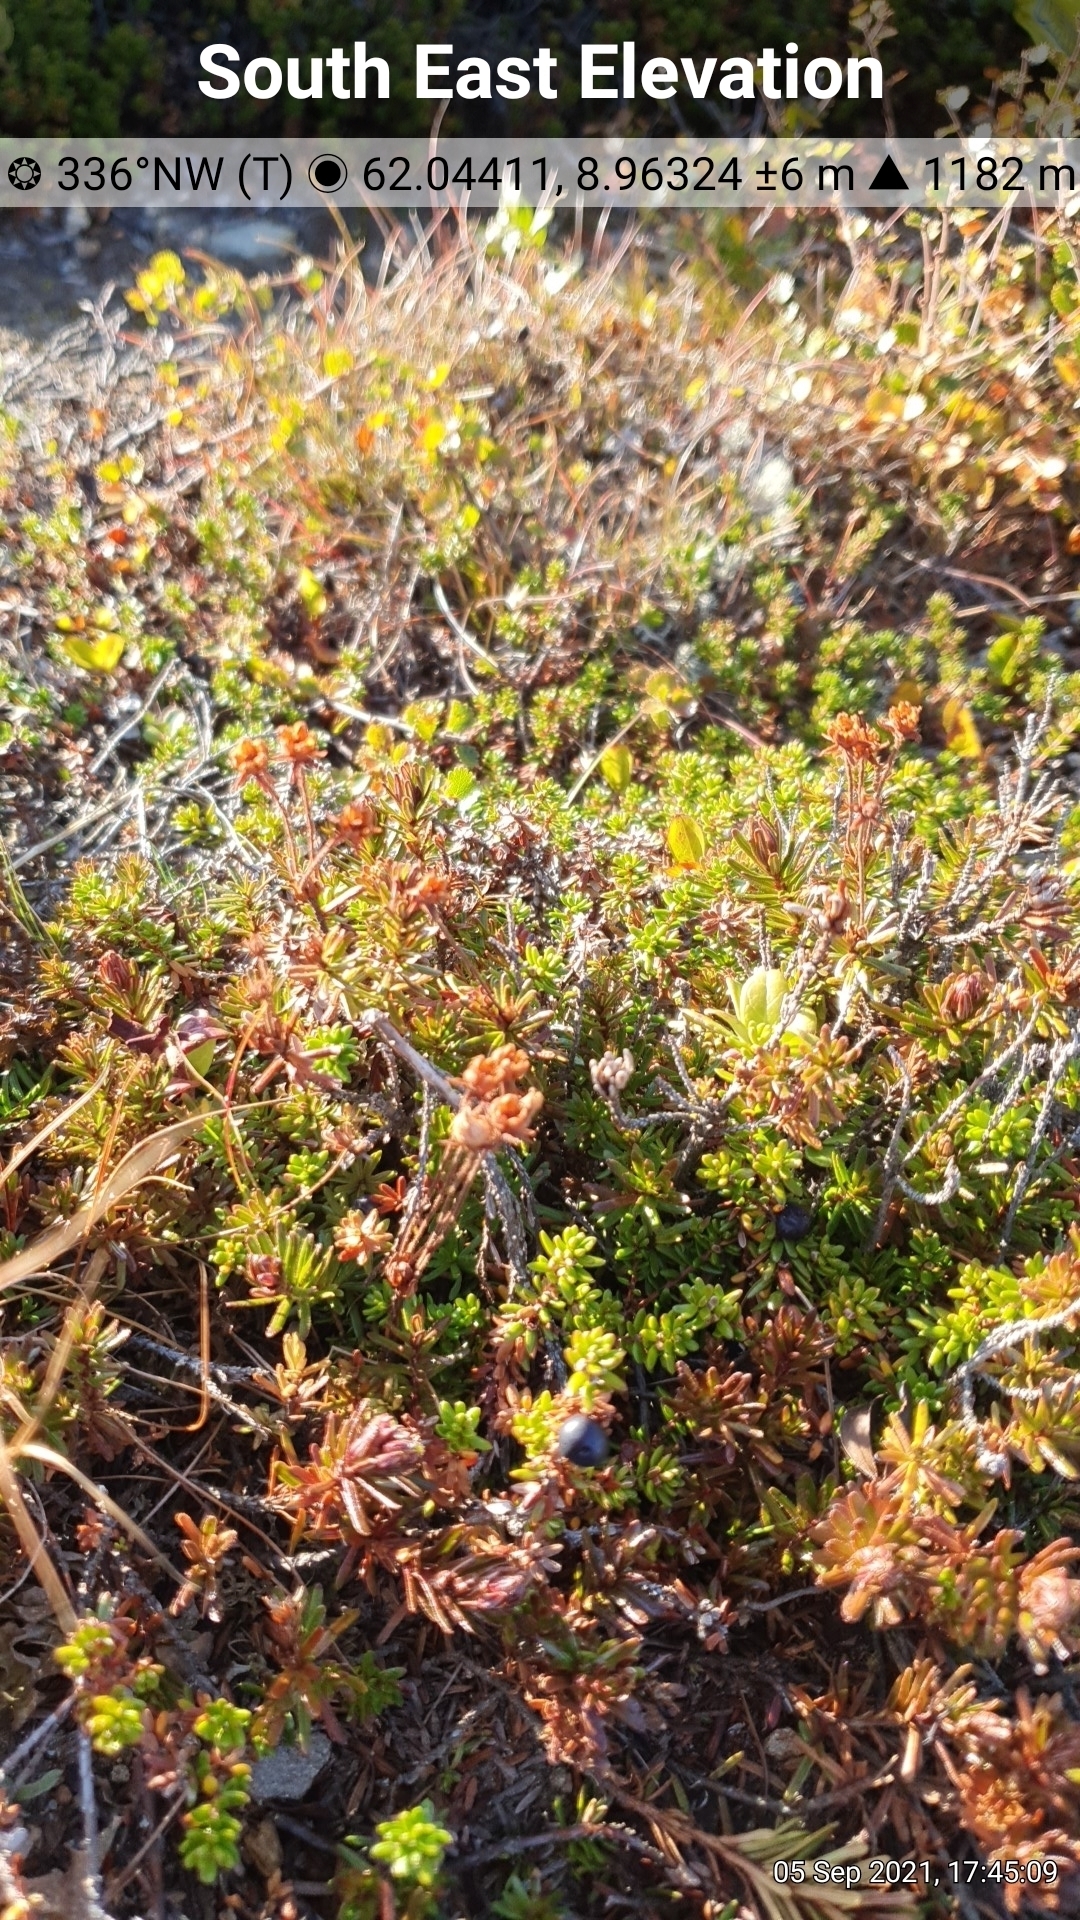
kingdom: Plantae
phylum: Tracheophyta
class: Magnoliopsida
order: Ericales
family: Ericaceae
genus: Phyllodoce
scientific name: Phyllodoce caerulea
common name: Blue heath
